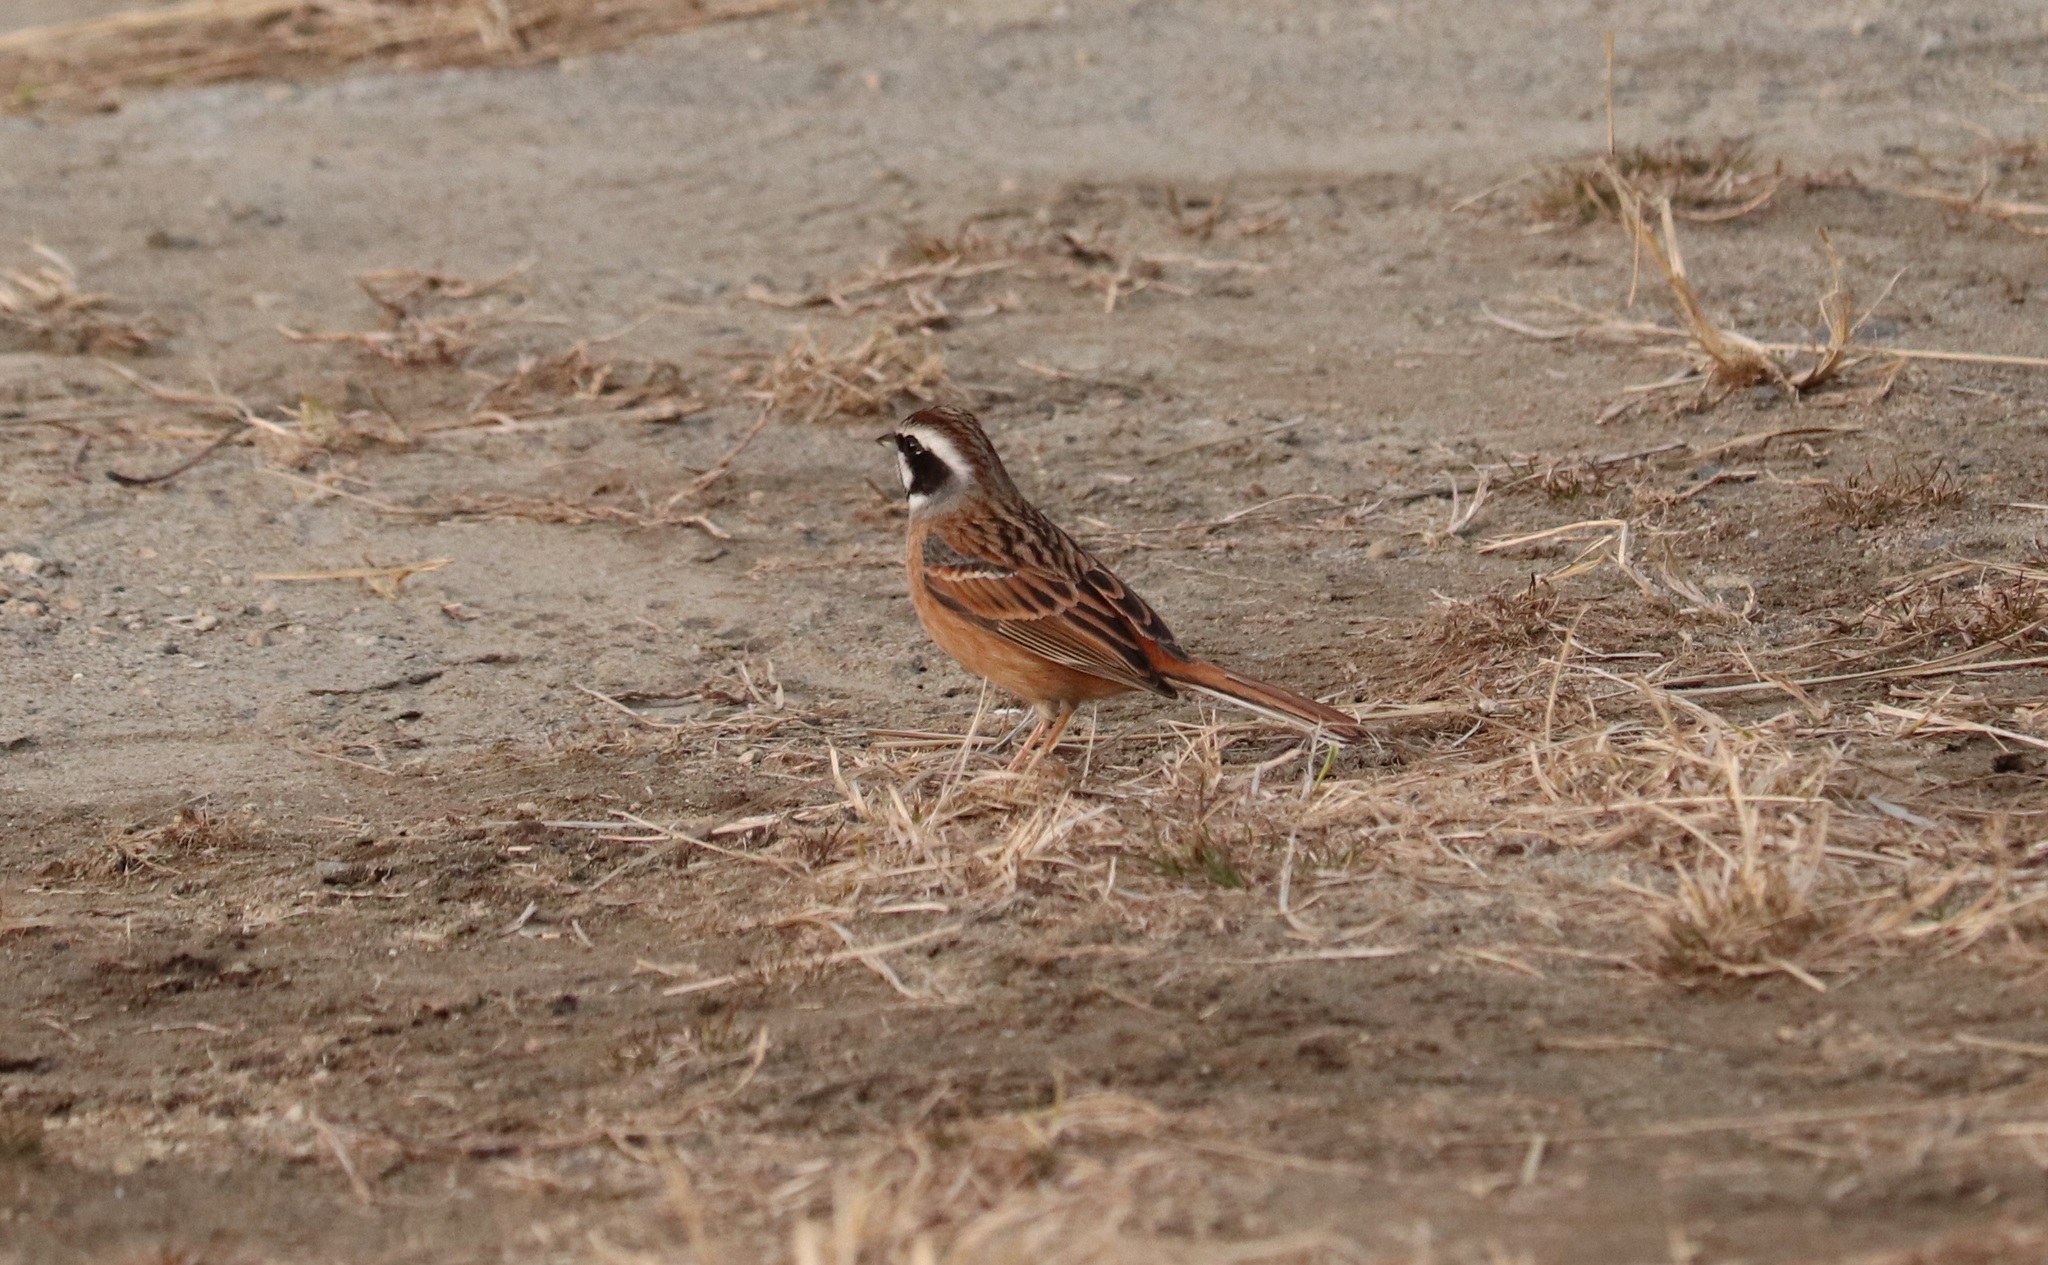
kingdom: Animalia
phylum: Chordata
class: Aves
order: Passeriformes
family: Emberizidae
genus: Emberiza
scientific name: Emberiza cioides
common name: Meadow bunting
